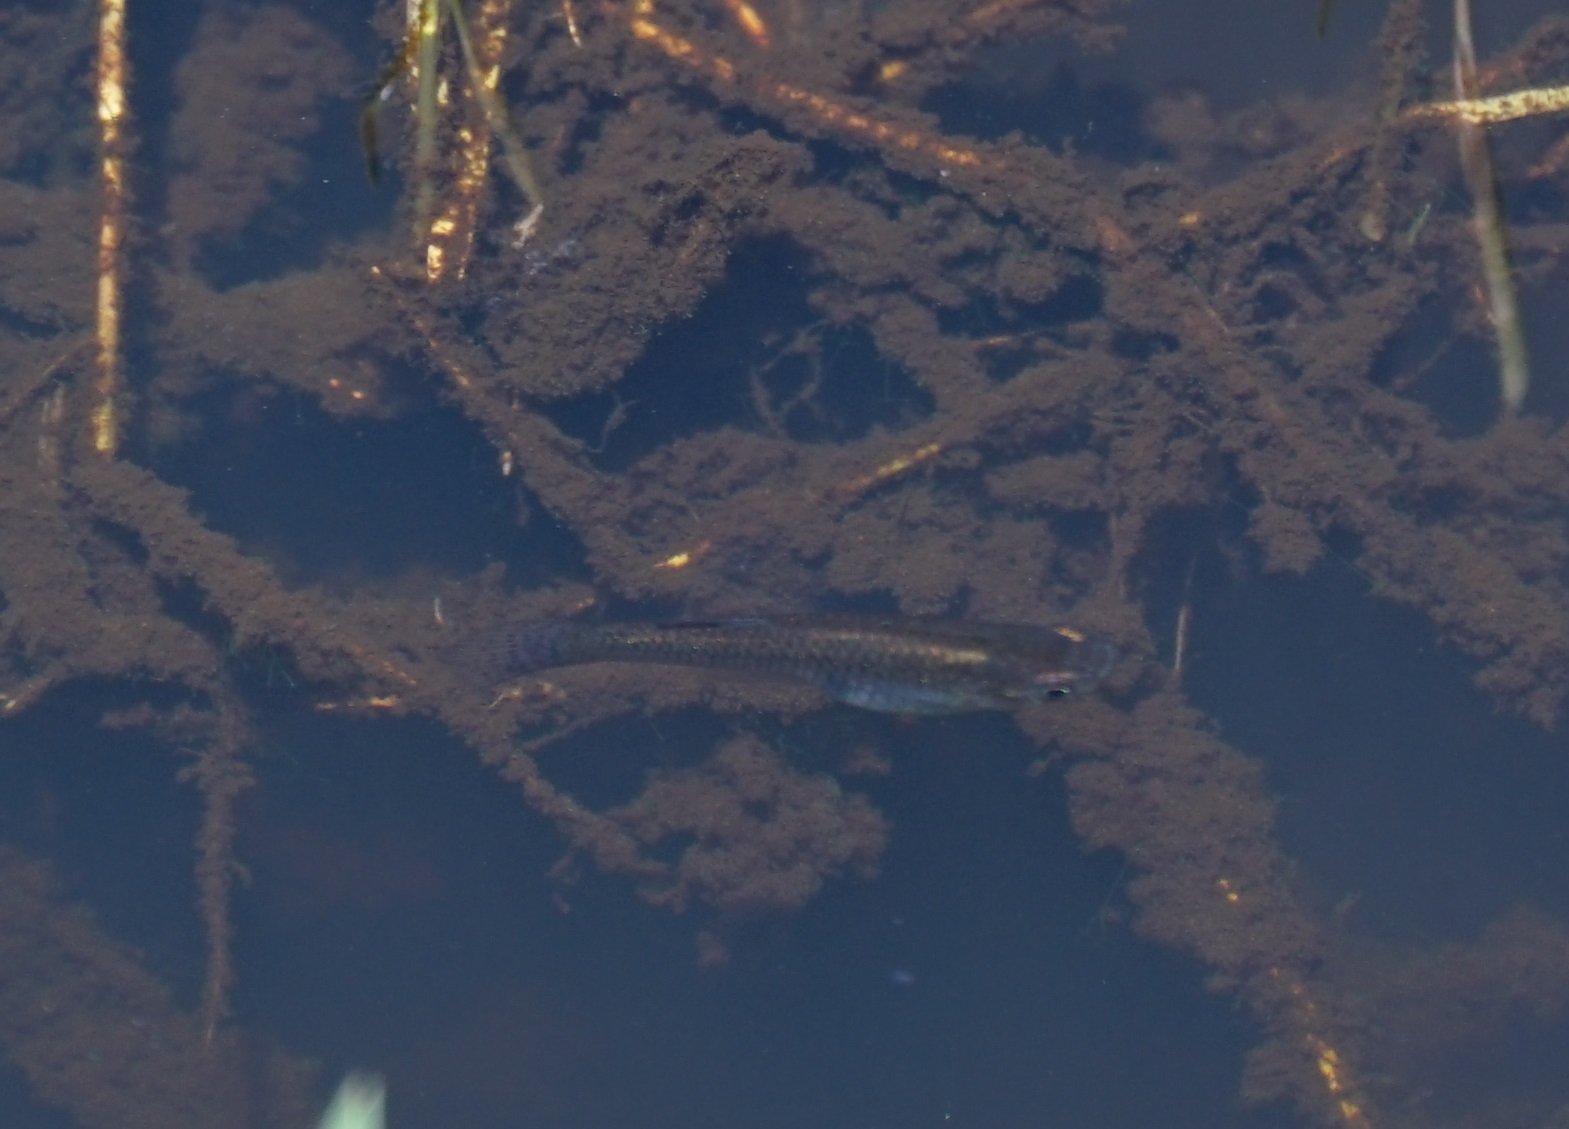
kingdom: Animalia
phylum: Chordata
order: Cyprinodontiformes
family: Poeciliidae
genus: Gambusia
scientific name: Gambusia holbrooki
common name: Eastern mosquitofish
